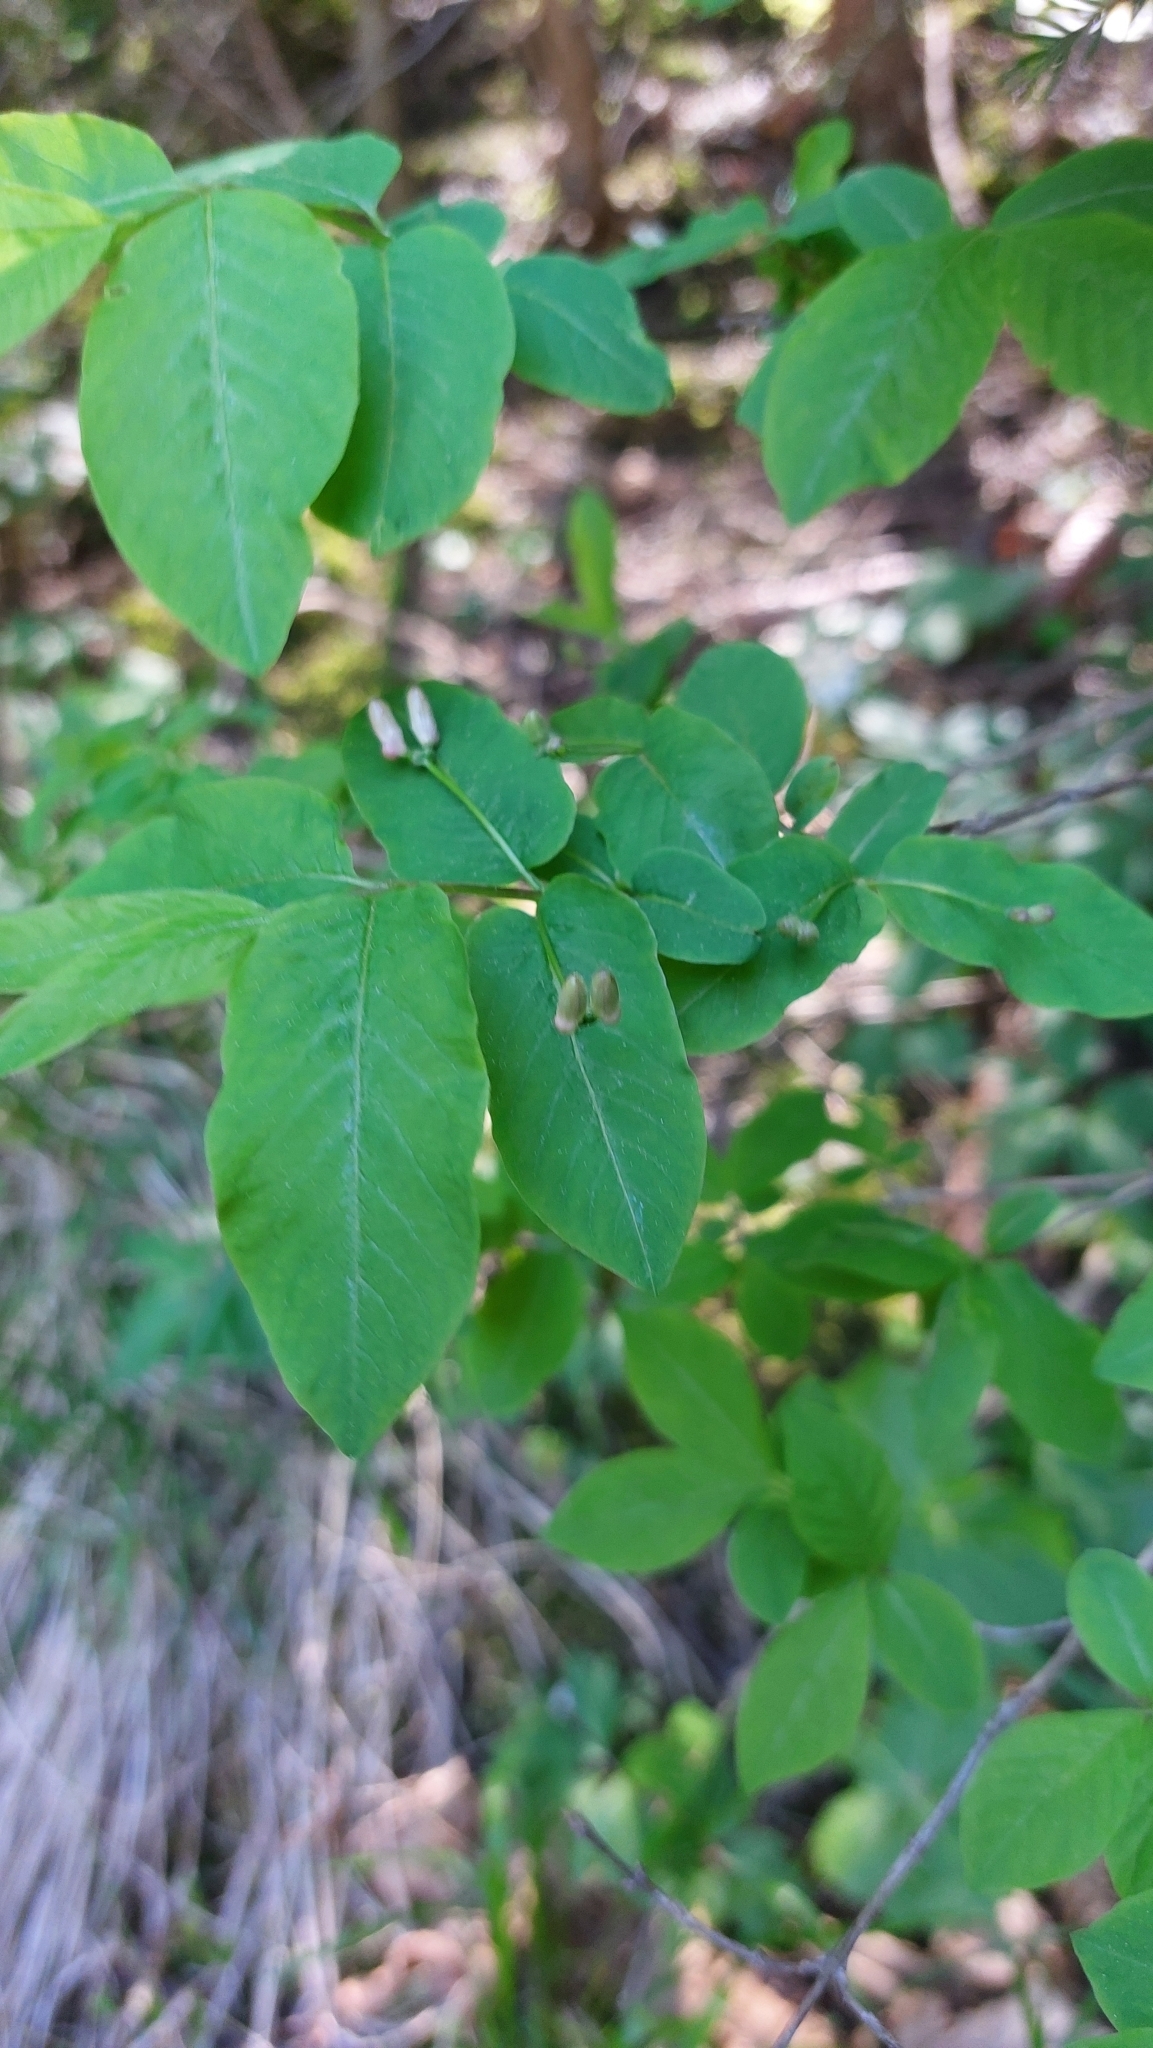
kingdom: Plantae
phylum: Tracheophyta
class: Magnoliopsida
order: Dipsacales
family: Caprifoliaceae
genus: Lonicera
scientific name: Lonicera nigra
